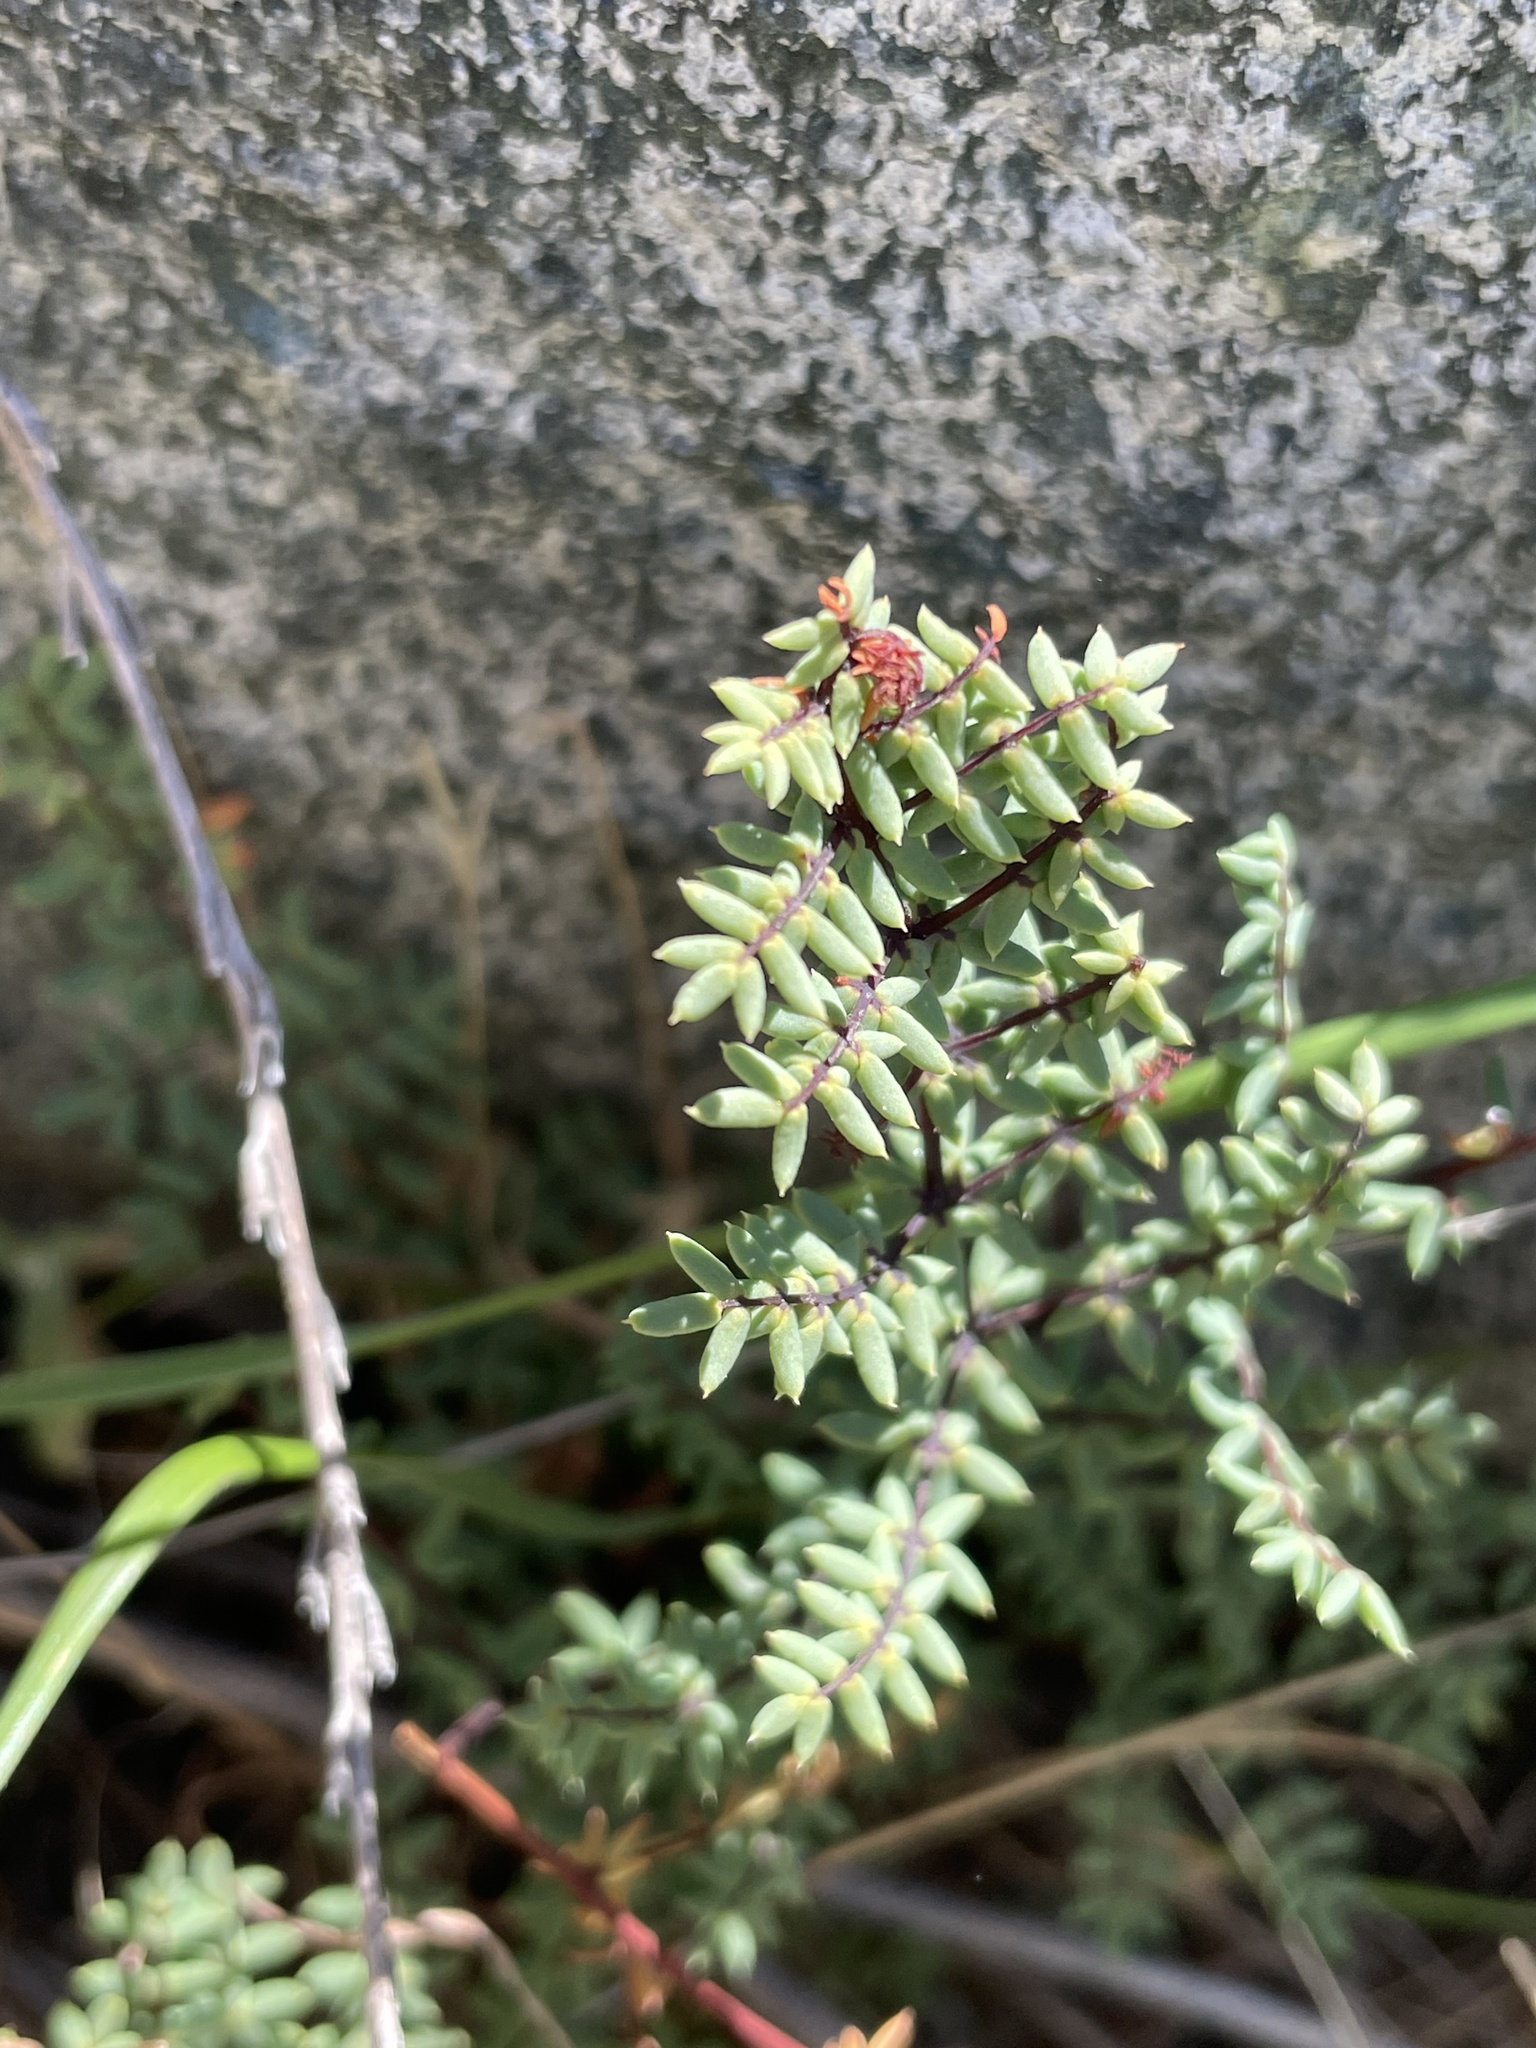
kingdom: Plantae
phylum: Tracheophyta
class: Polypodiopsida
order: Polypodiales
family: Pteridaceae
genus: Pellaea
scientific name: Pellaea mucronata
